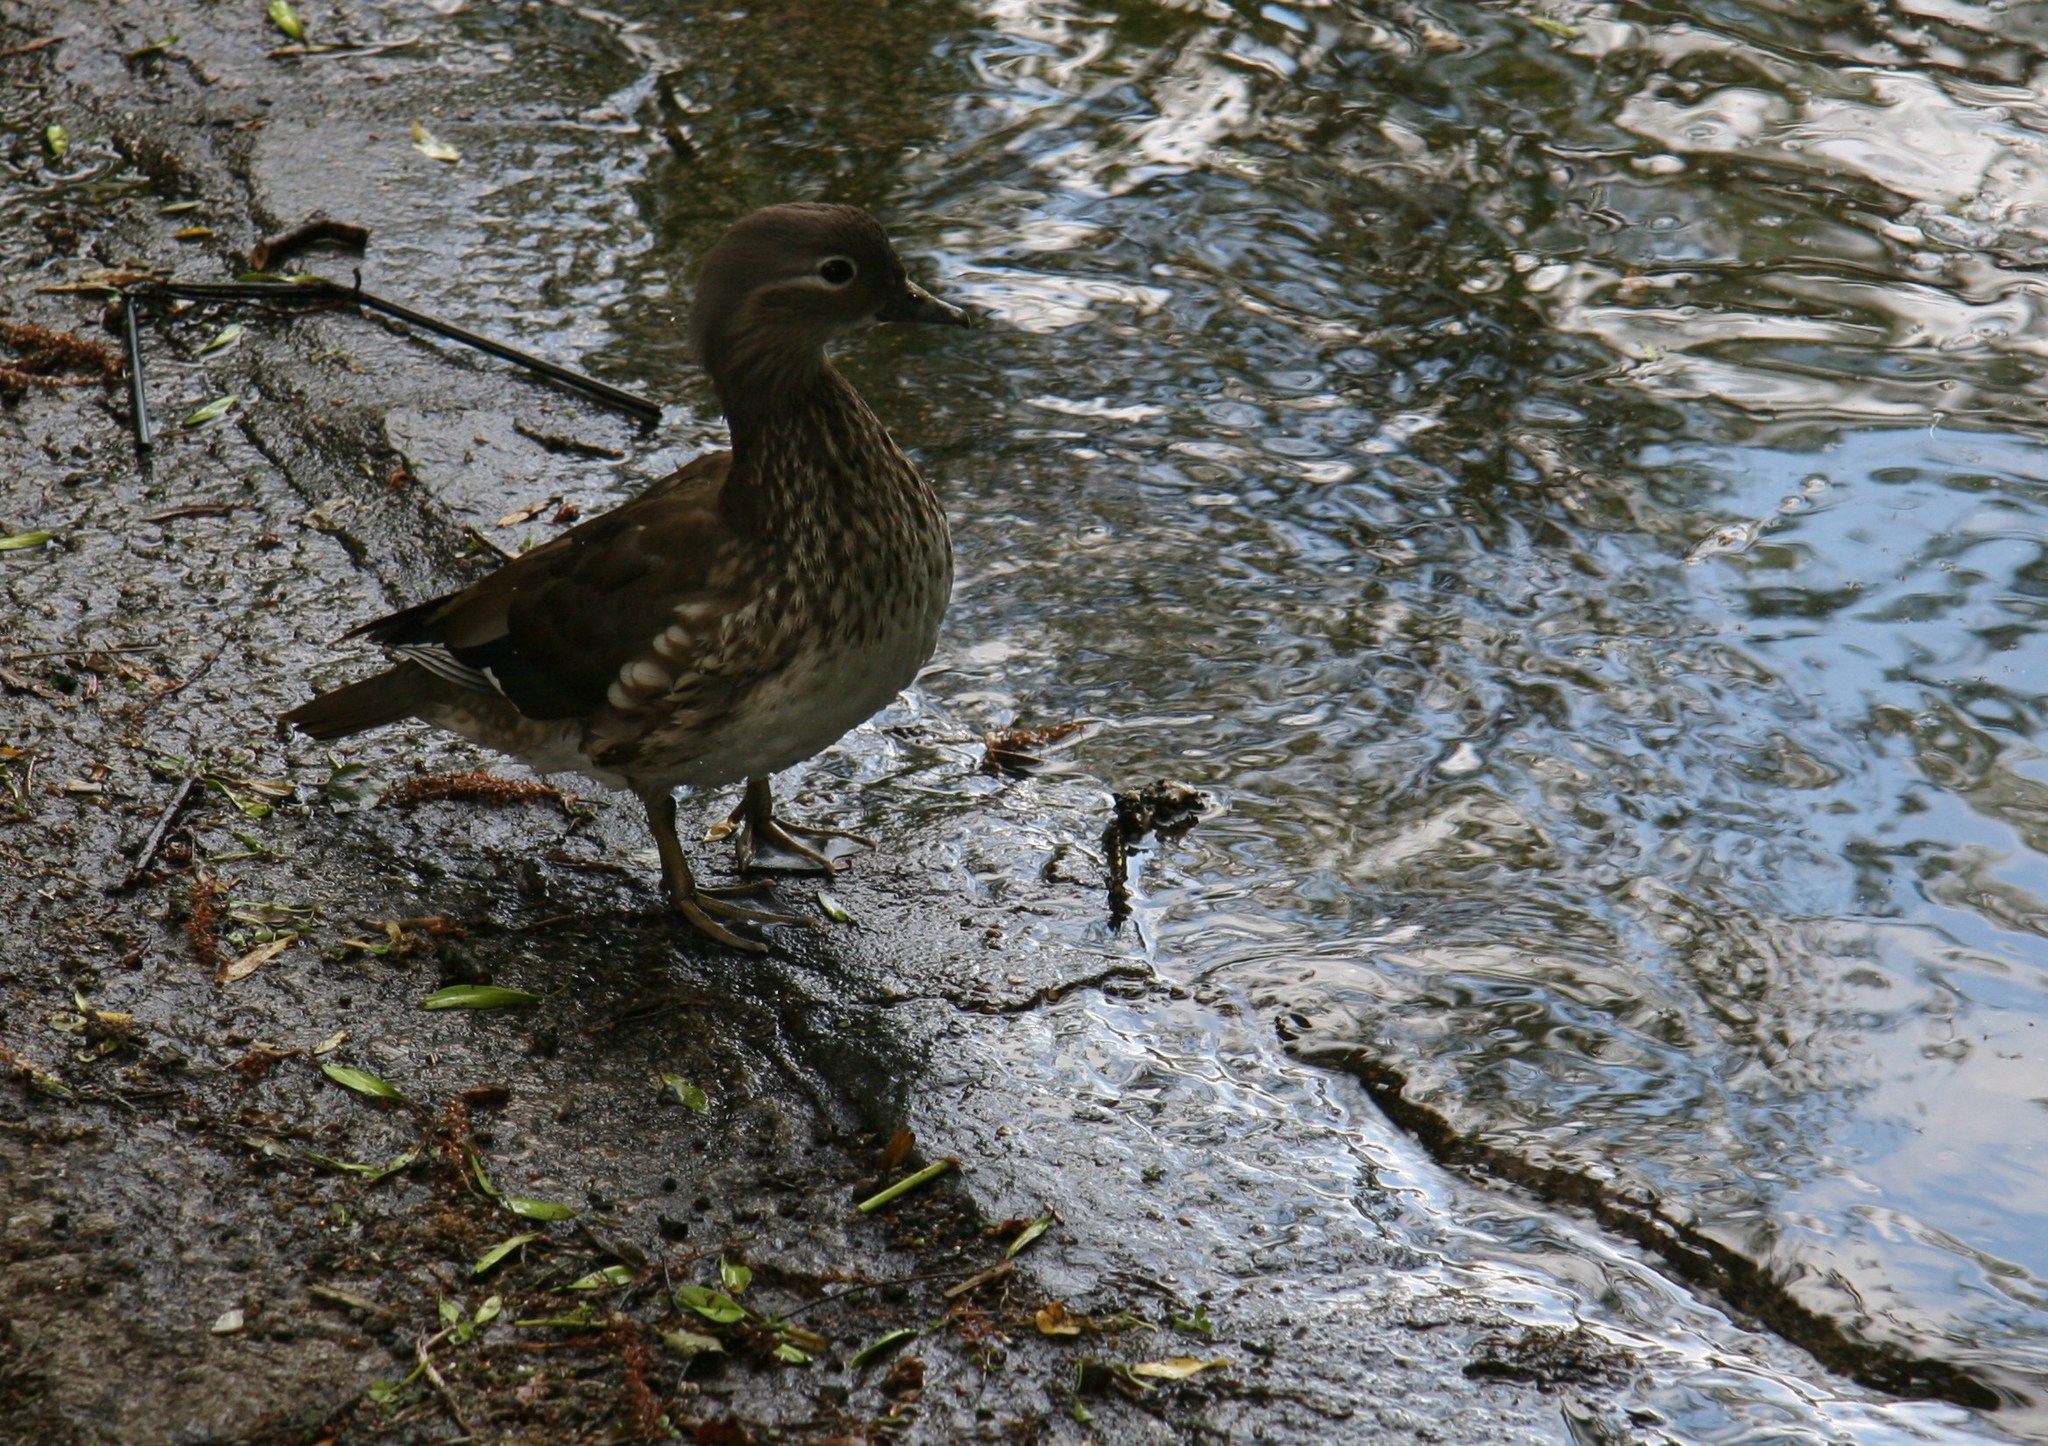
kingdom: Animalia
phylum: Chordata
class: Aves
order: Anseriformes
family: Anatidae
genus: Aix
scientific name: Aix galericulata
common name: Mandarin duck
